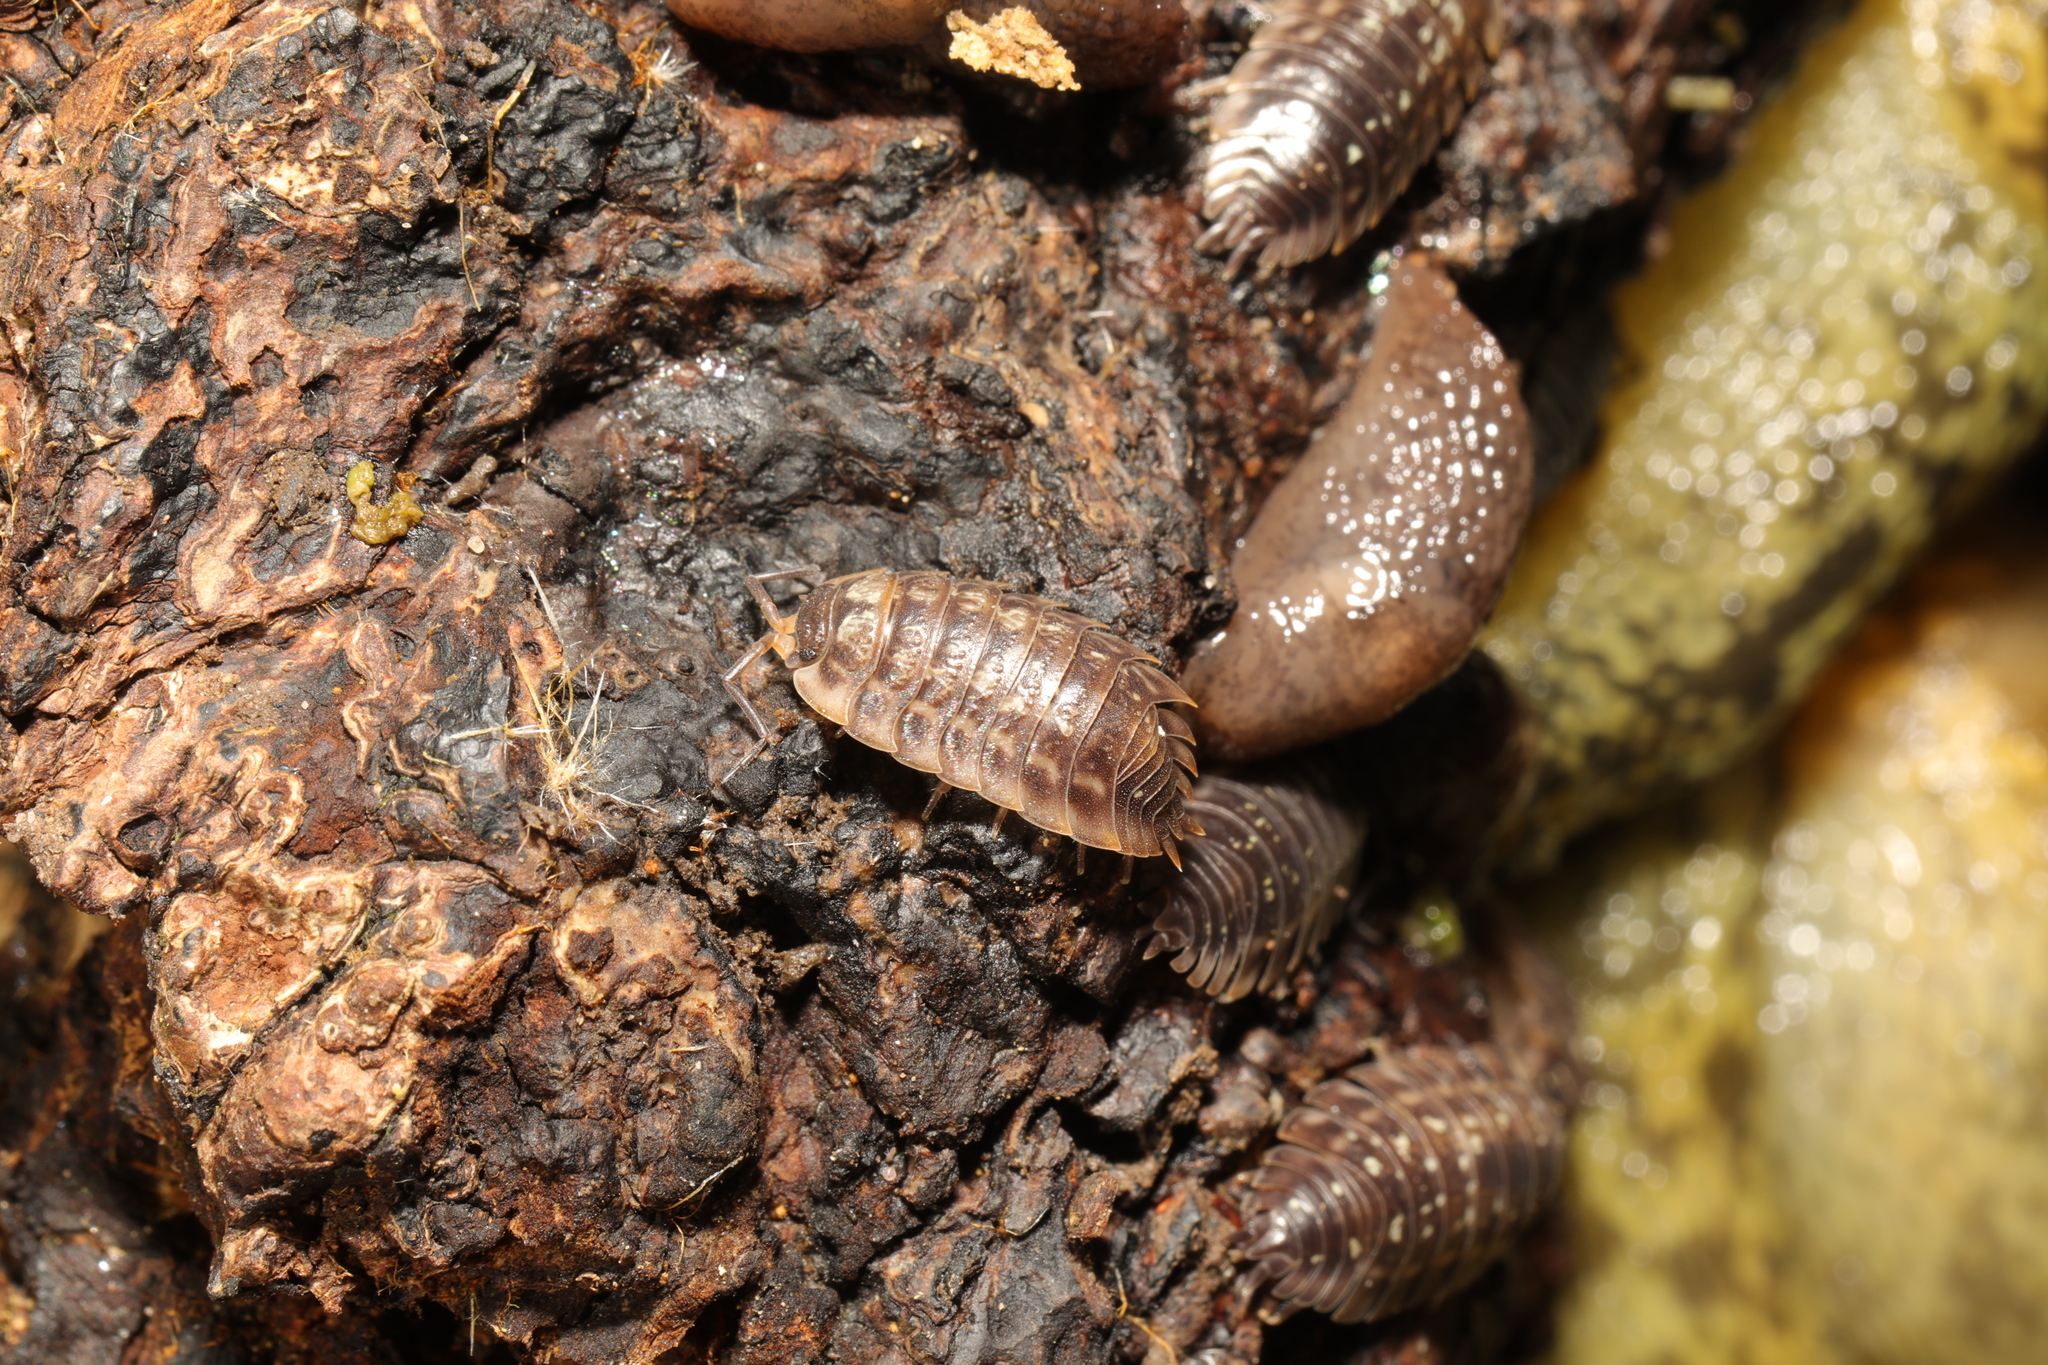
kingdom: Animalia
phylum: Arthropoda
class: Malacostraca
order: Isopoda
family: Oniscidae
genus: Oniscus
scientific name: Oniscus asellus
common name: Common shiny woodlouse
